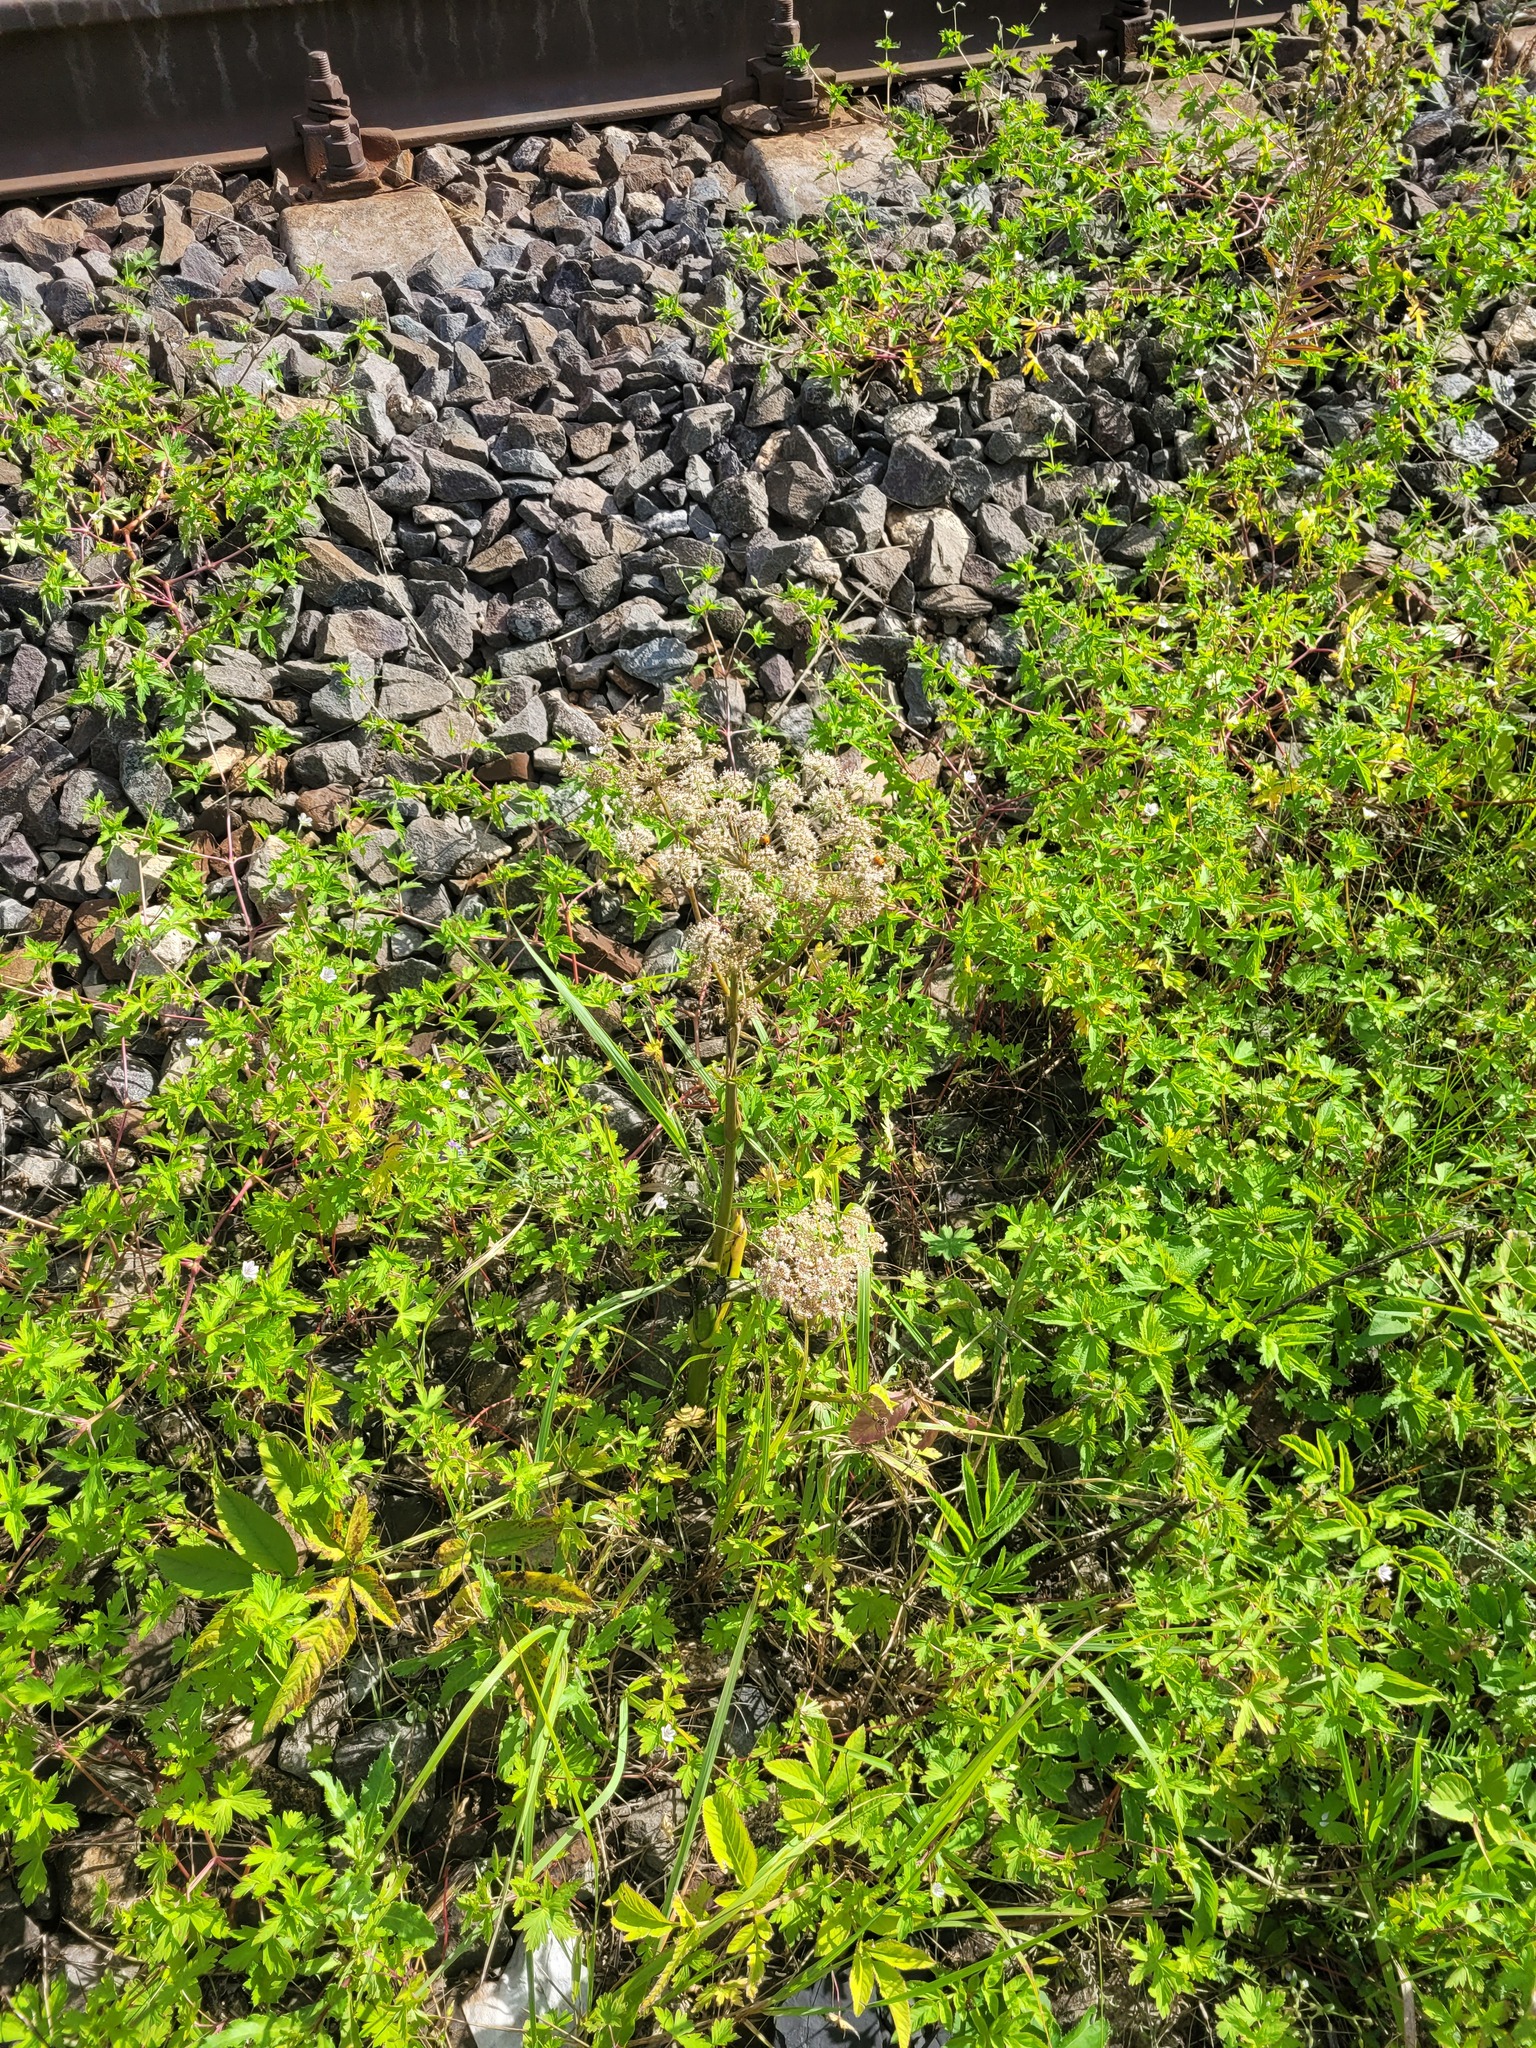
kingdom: Plantae
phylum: Tracheophyta
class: Magnoliopsida
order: Apiales
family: Apiaceae
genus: Angelica
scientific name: Angelica sylvestris
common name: Wild angelica
